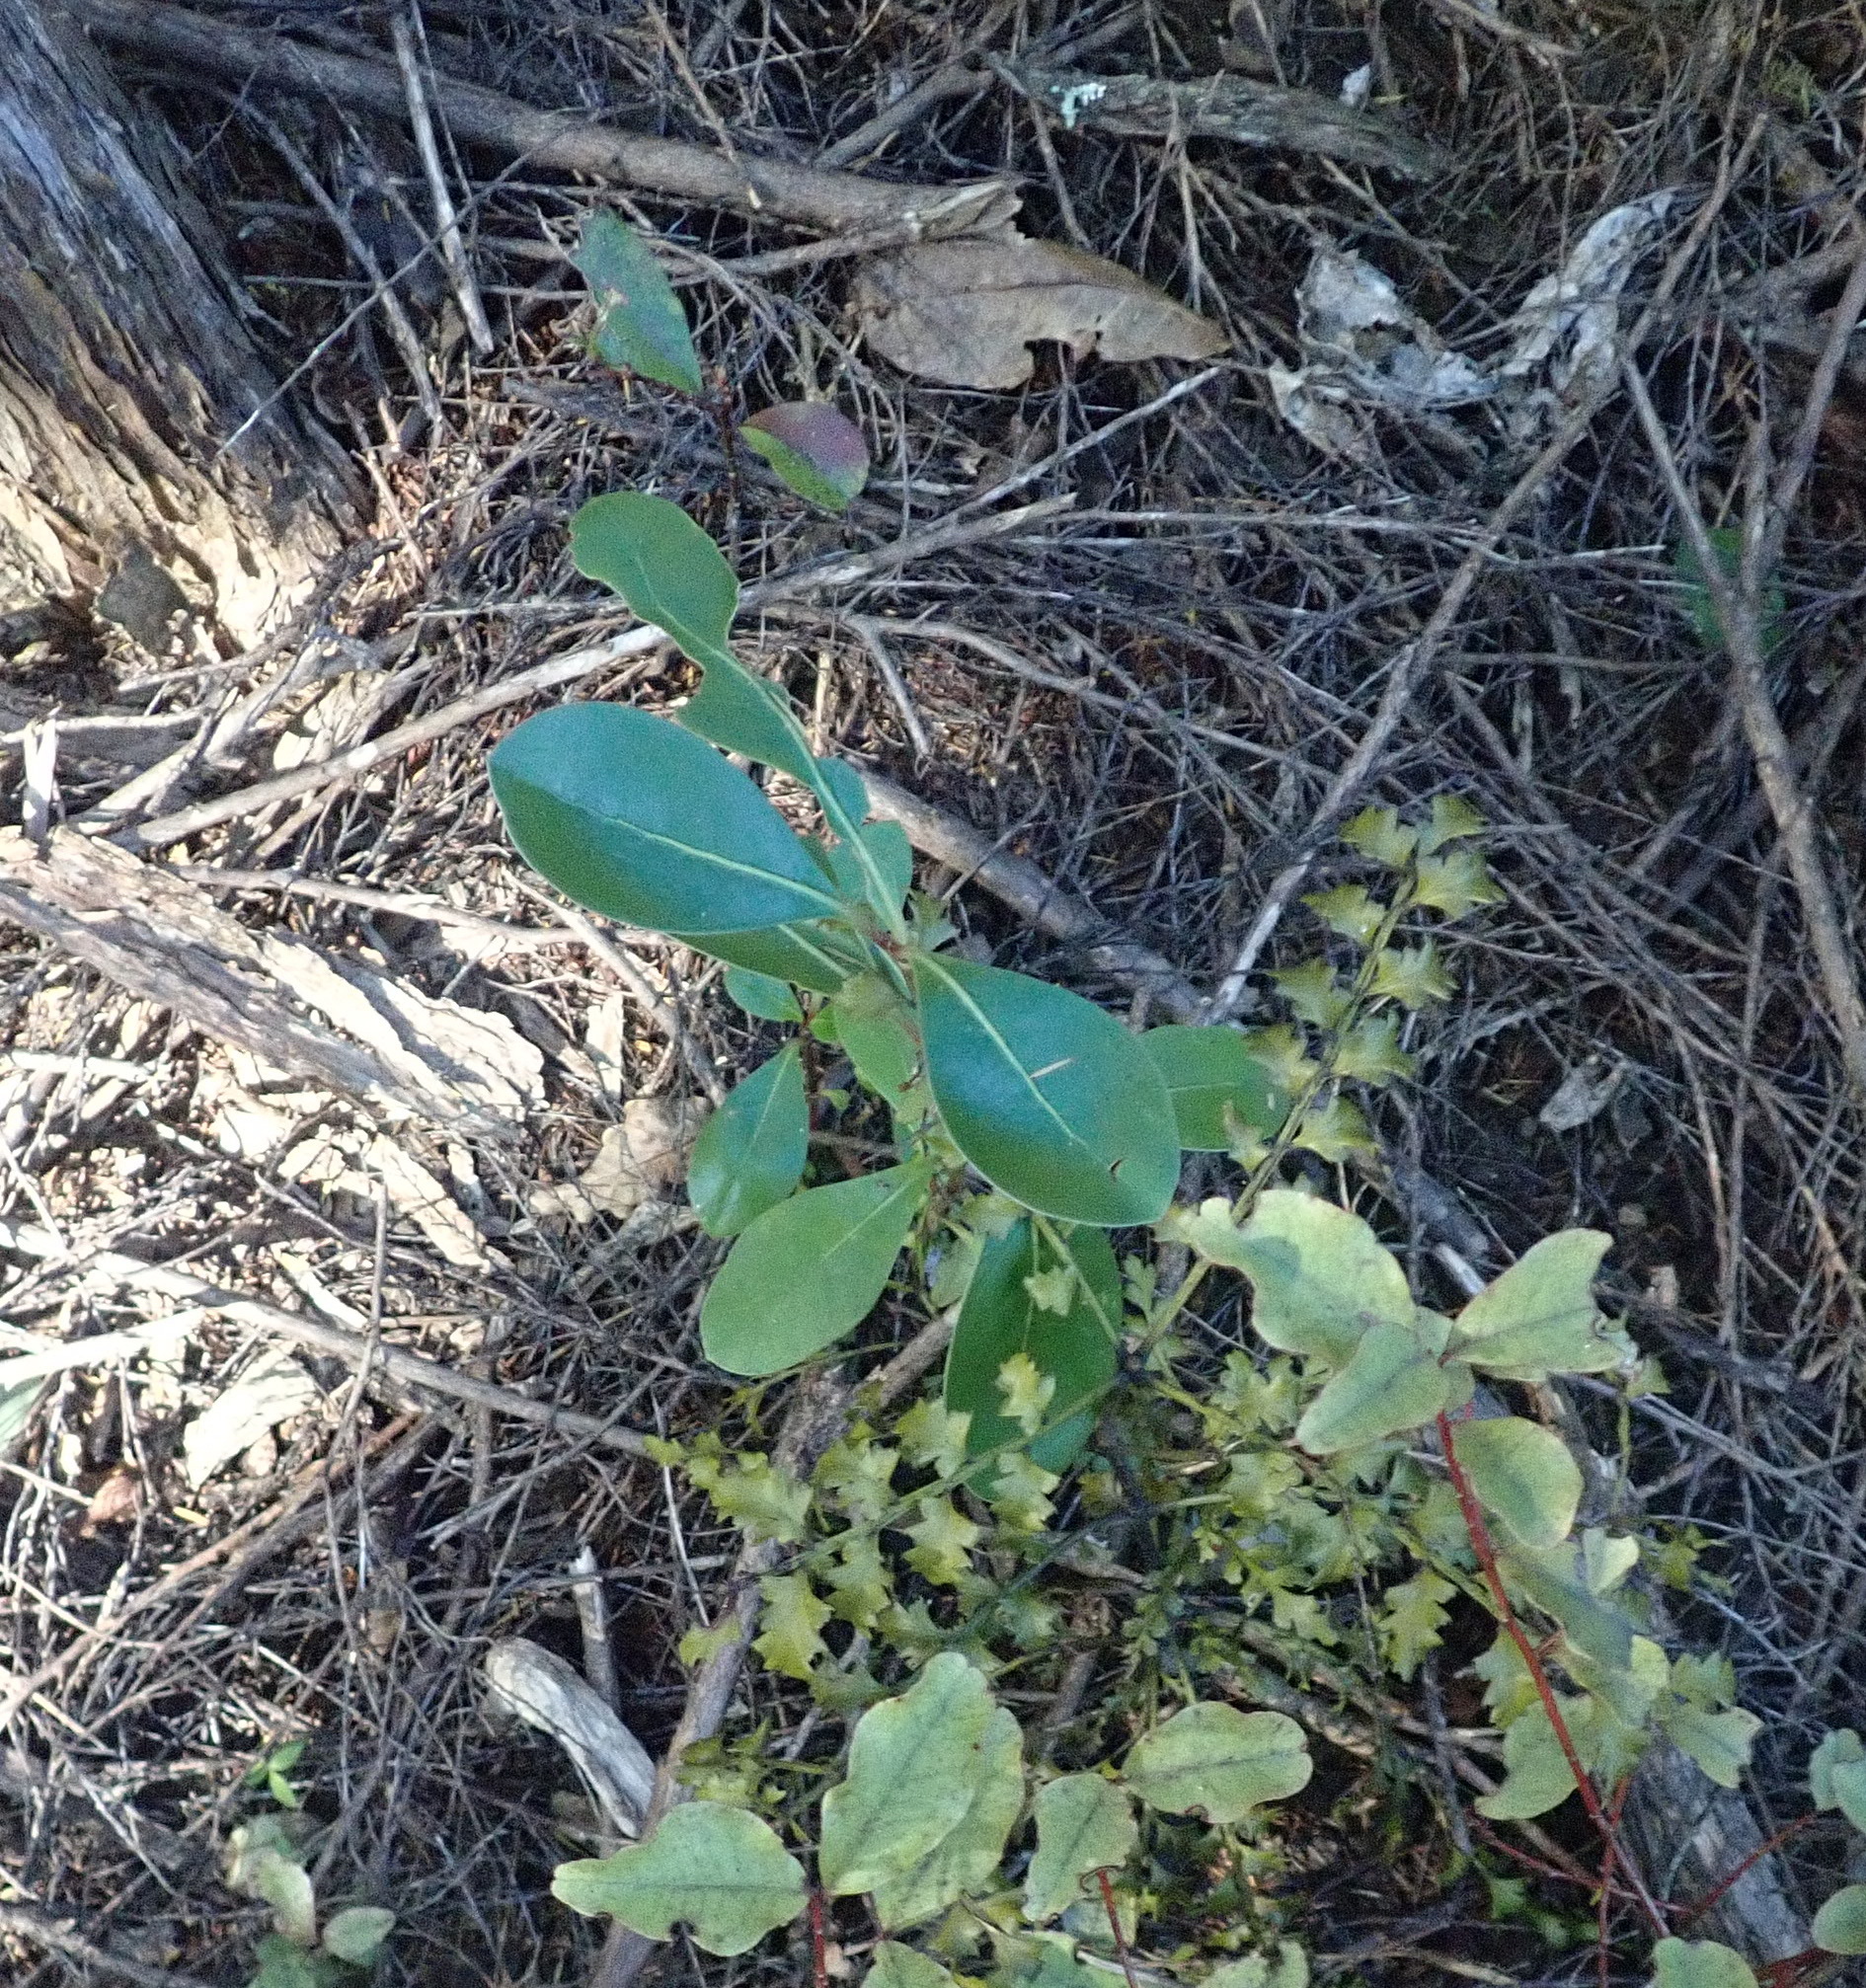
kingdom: Plantae
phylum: Tracheophyta
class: Magnoliopsida
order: Gentianales
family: Rubiaceae
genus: Coprosma
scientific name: Coprosma lucida
